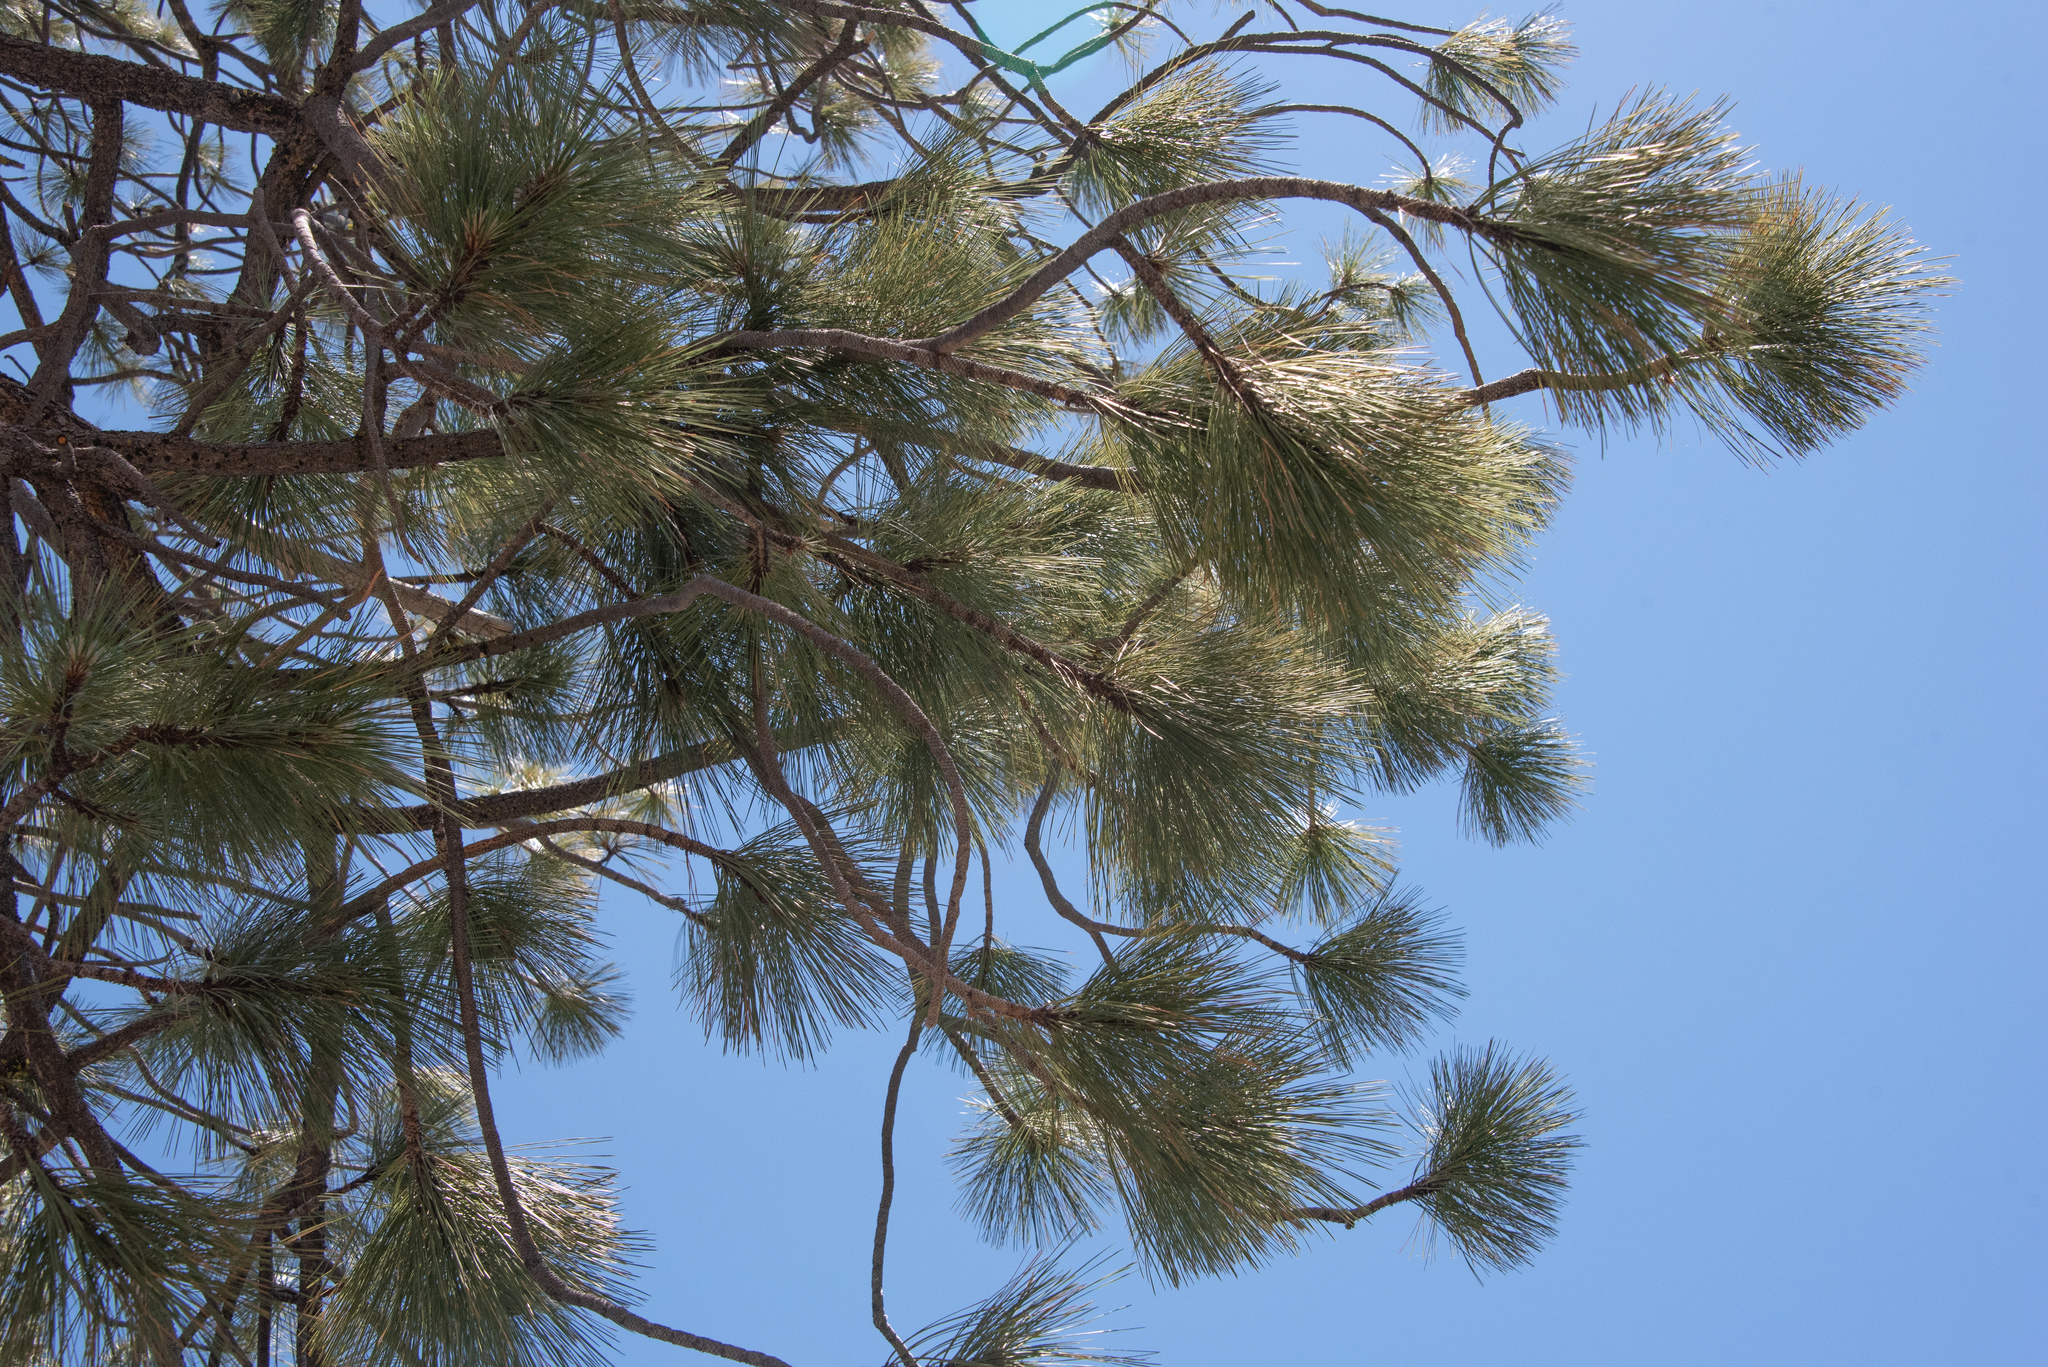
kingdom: Plantae
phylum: Tracheophyta
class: Pinopsida
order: Pinales
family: Pinaceae
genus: Pinus
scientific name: Pinus jeffreyi
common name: Jeffrey pine
